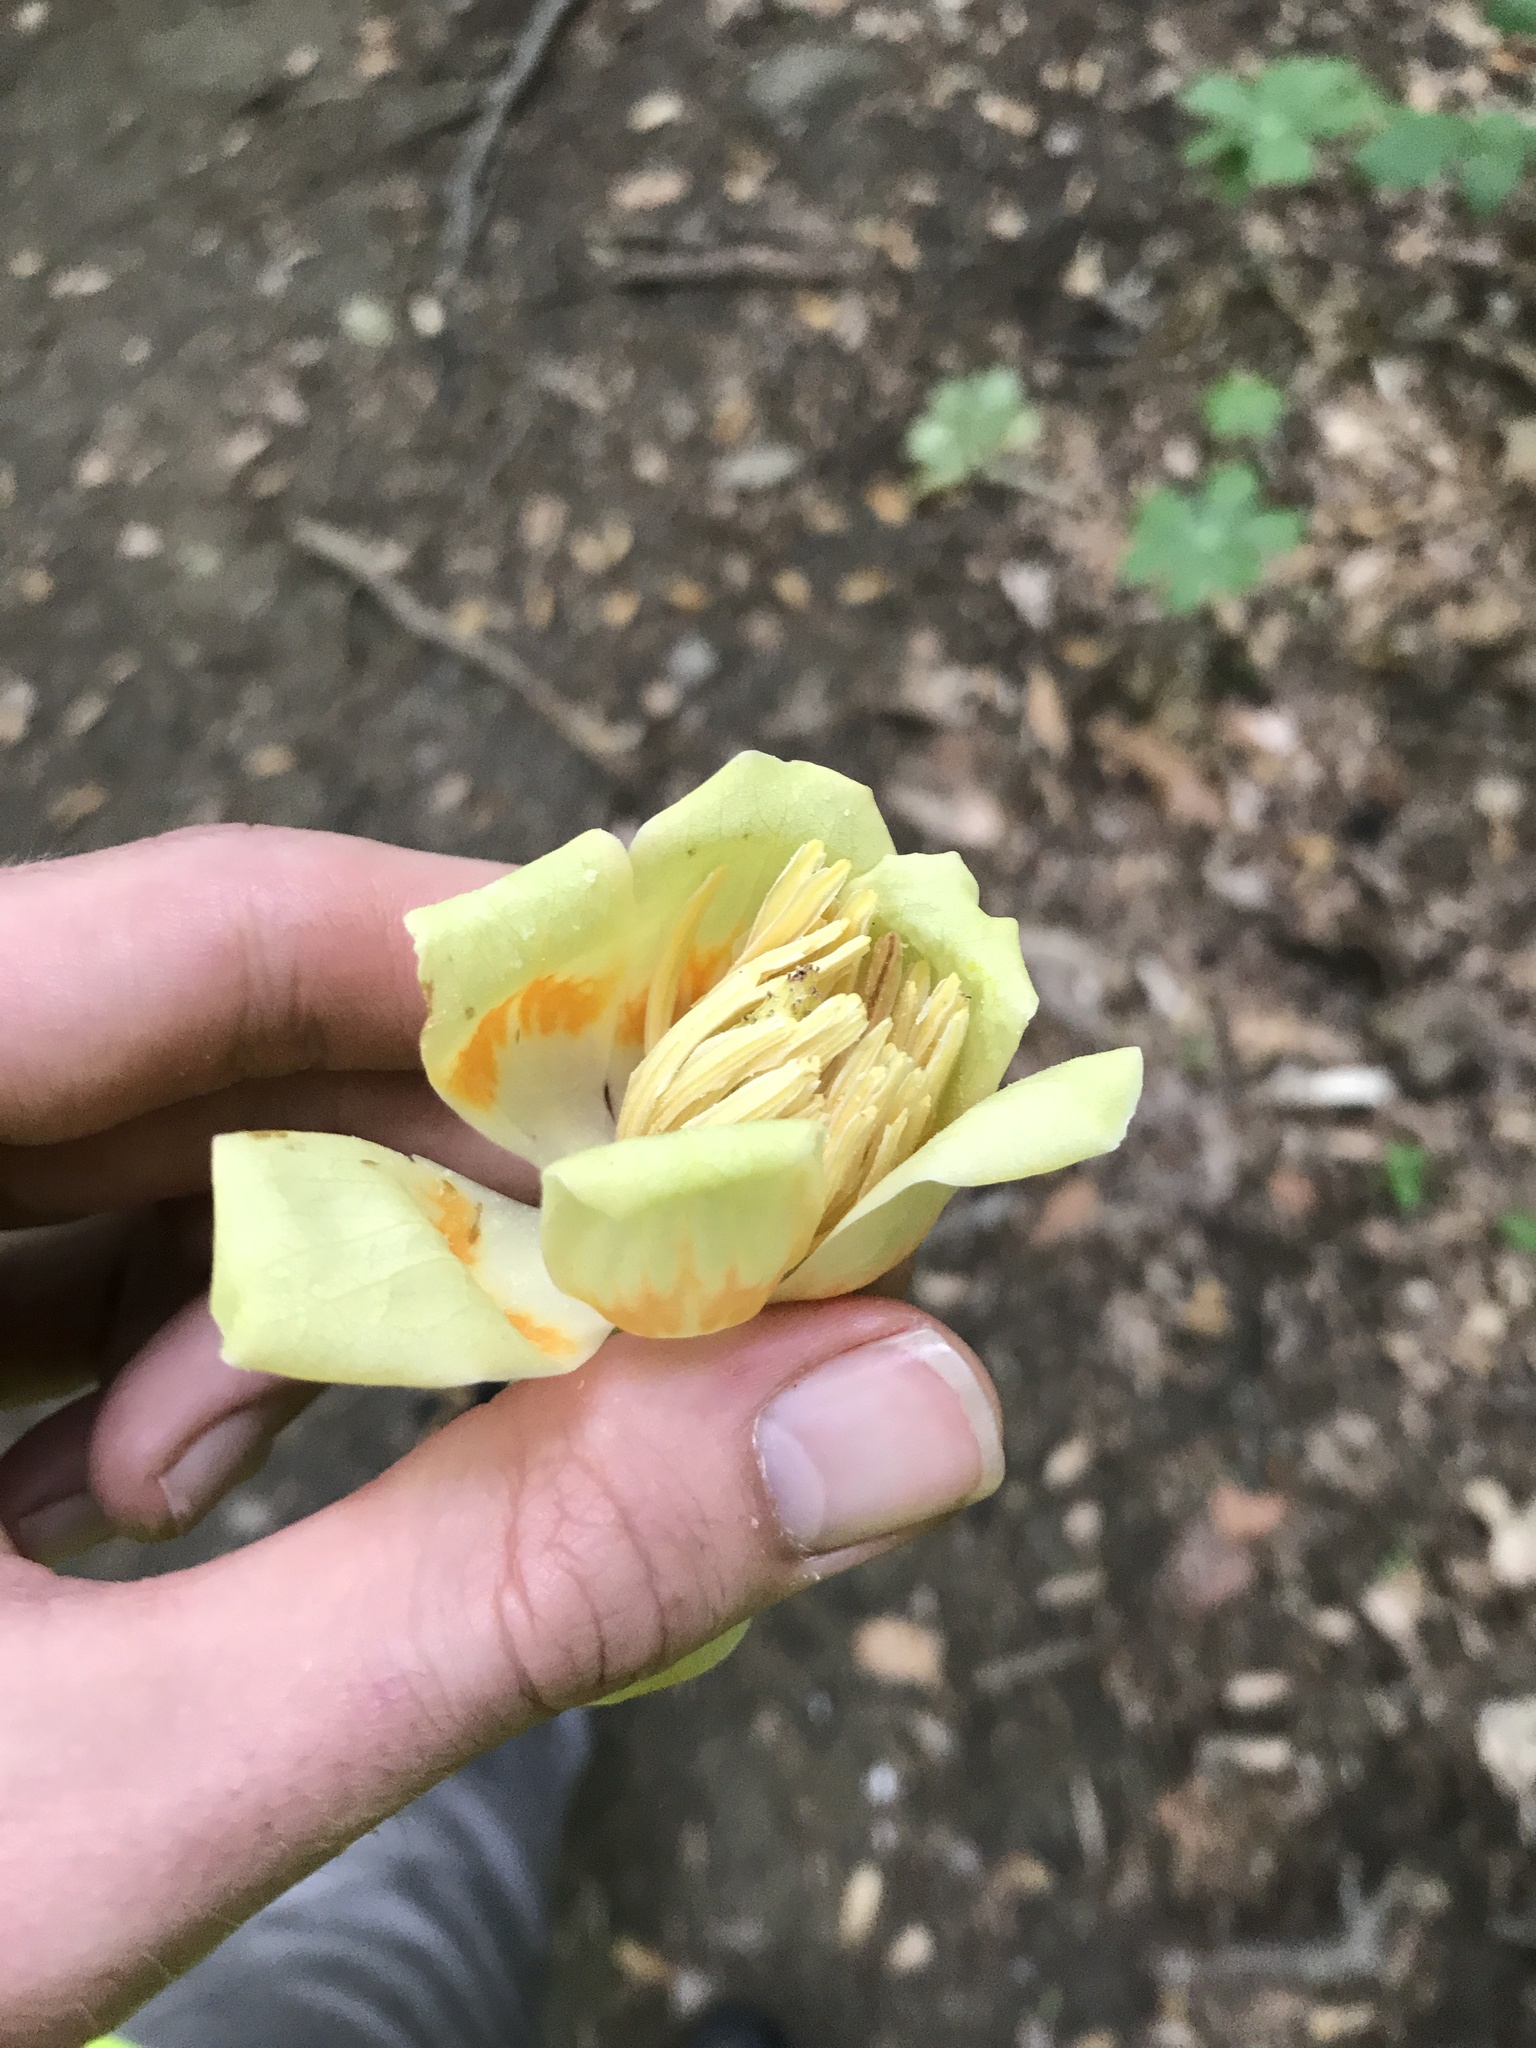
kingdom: Plantae
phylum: Tracheophyta
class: Magnoliopsida
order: Magnoliales
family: Magnoliaceae
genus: Liriodendron
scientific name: Liriodendron tulipifera
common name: Tulip tree
